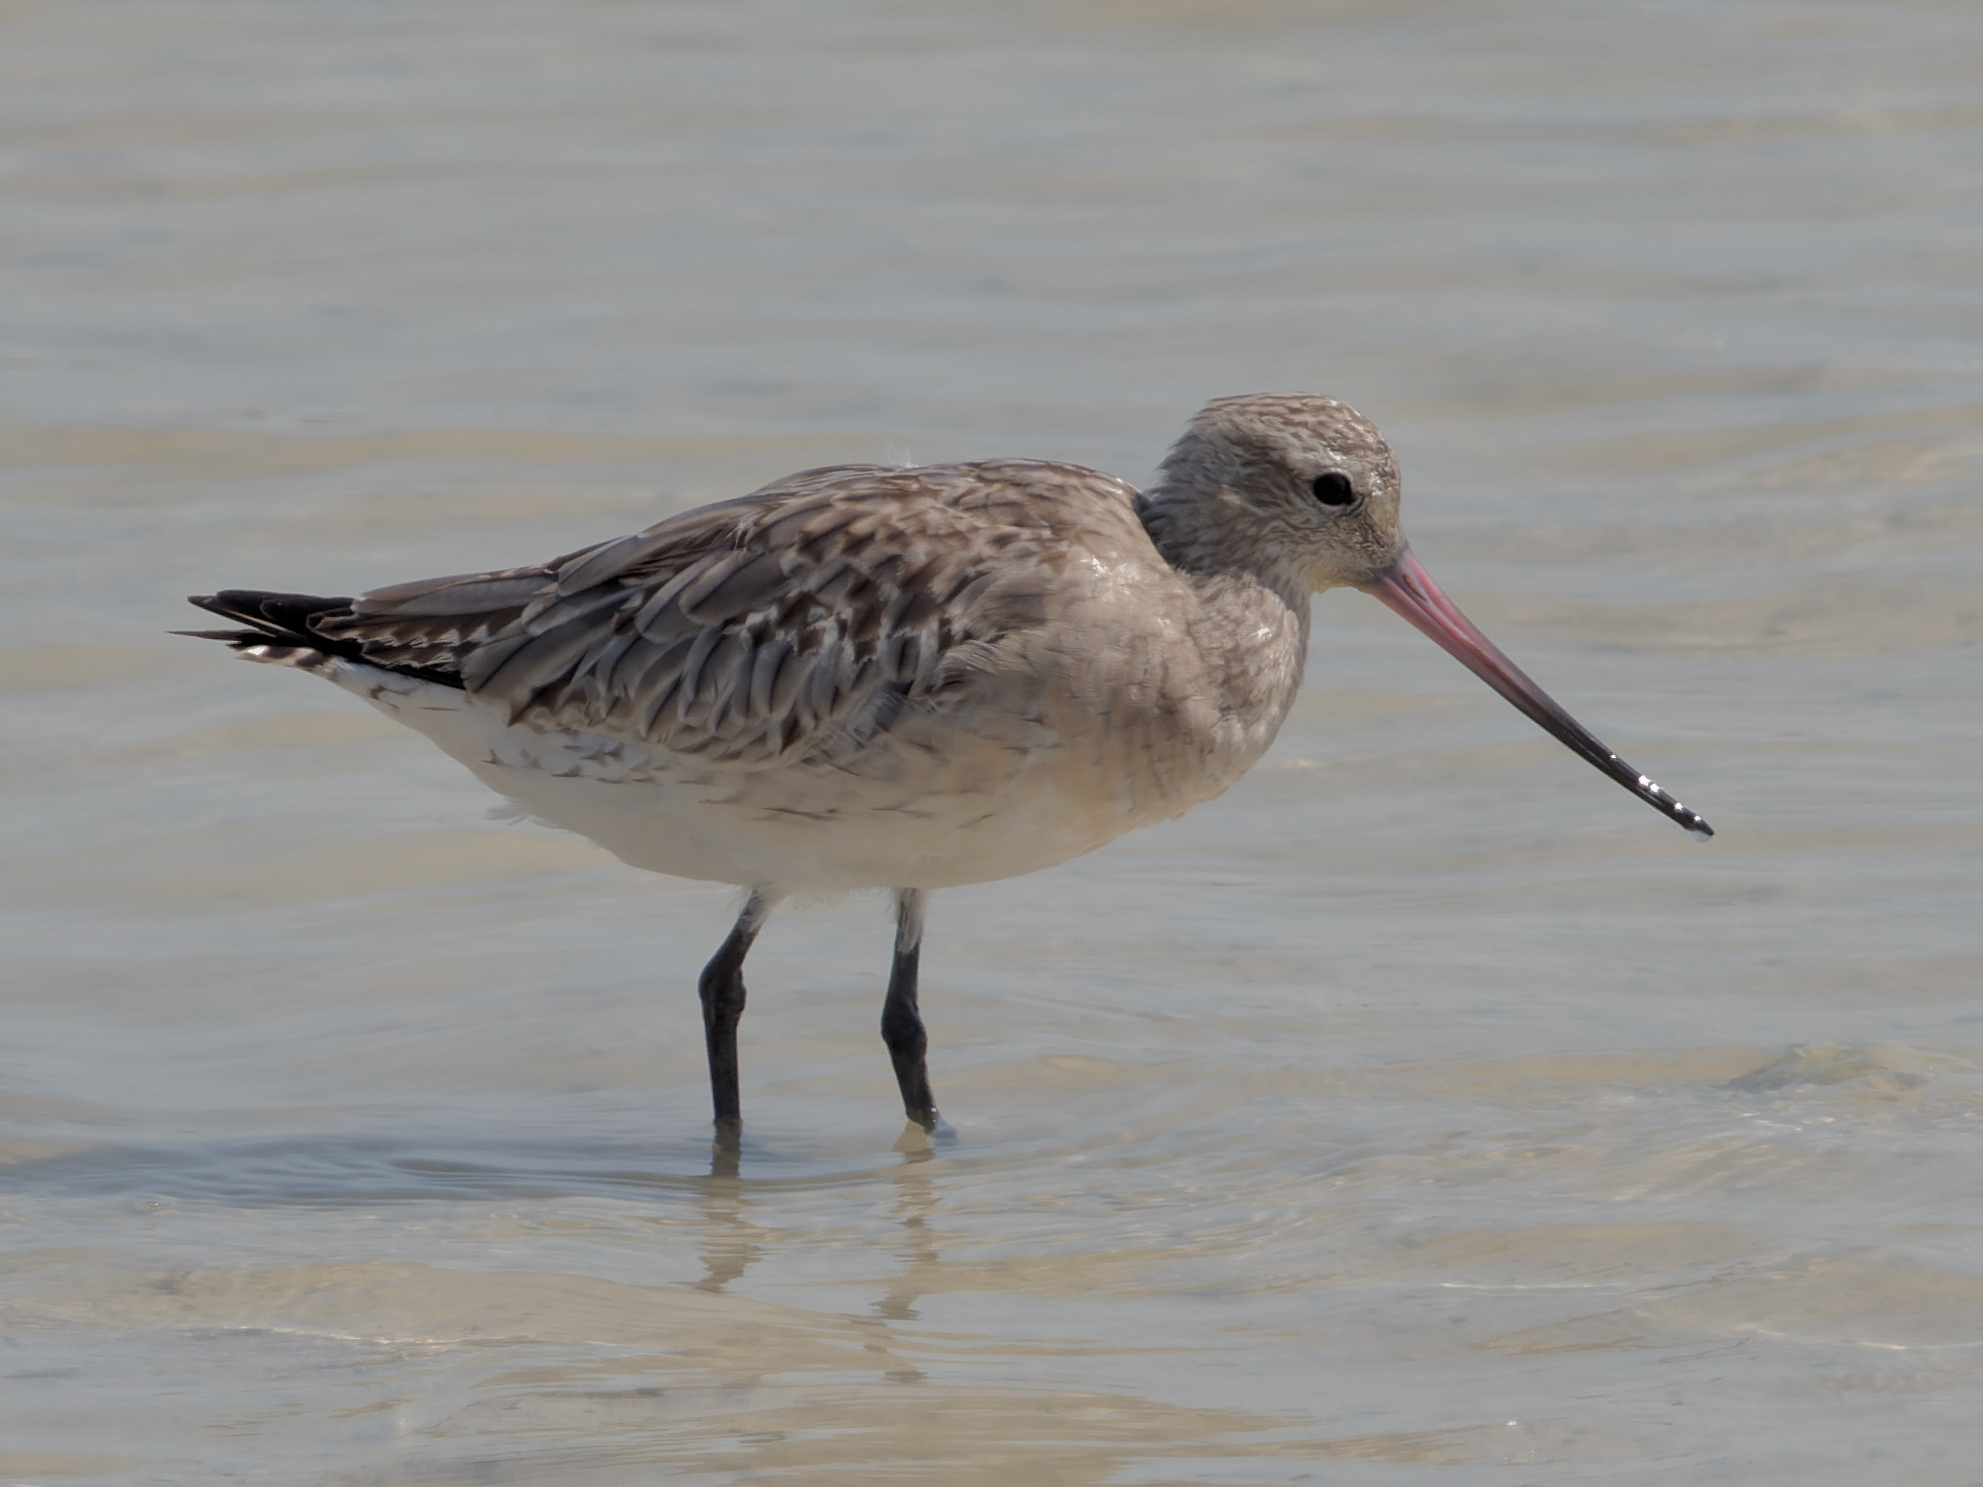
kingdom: Animalia
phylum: Chordata
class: Aves
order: Charadriiformes
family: Scolopacidae
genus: Limosa
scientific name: Limosa lapponica
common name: Bar-tailed godwit
